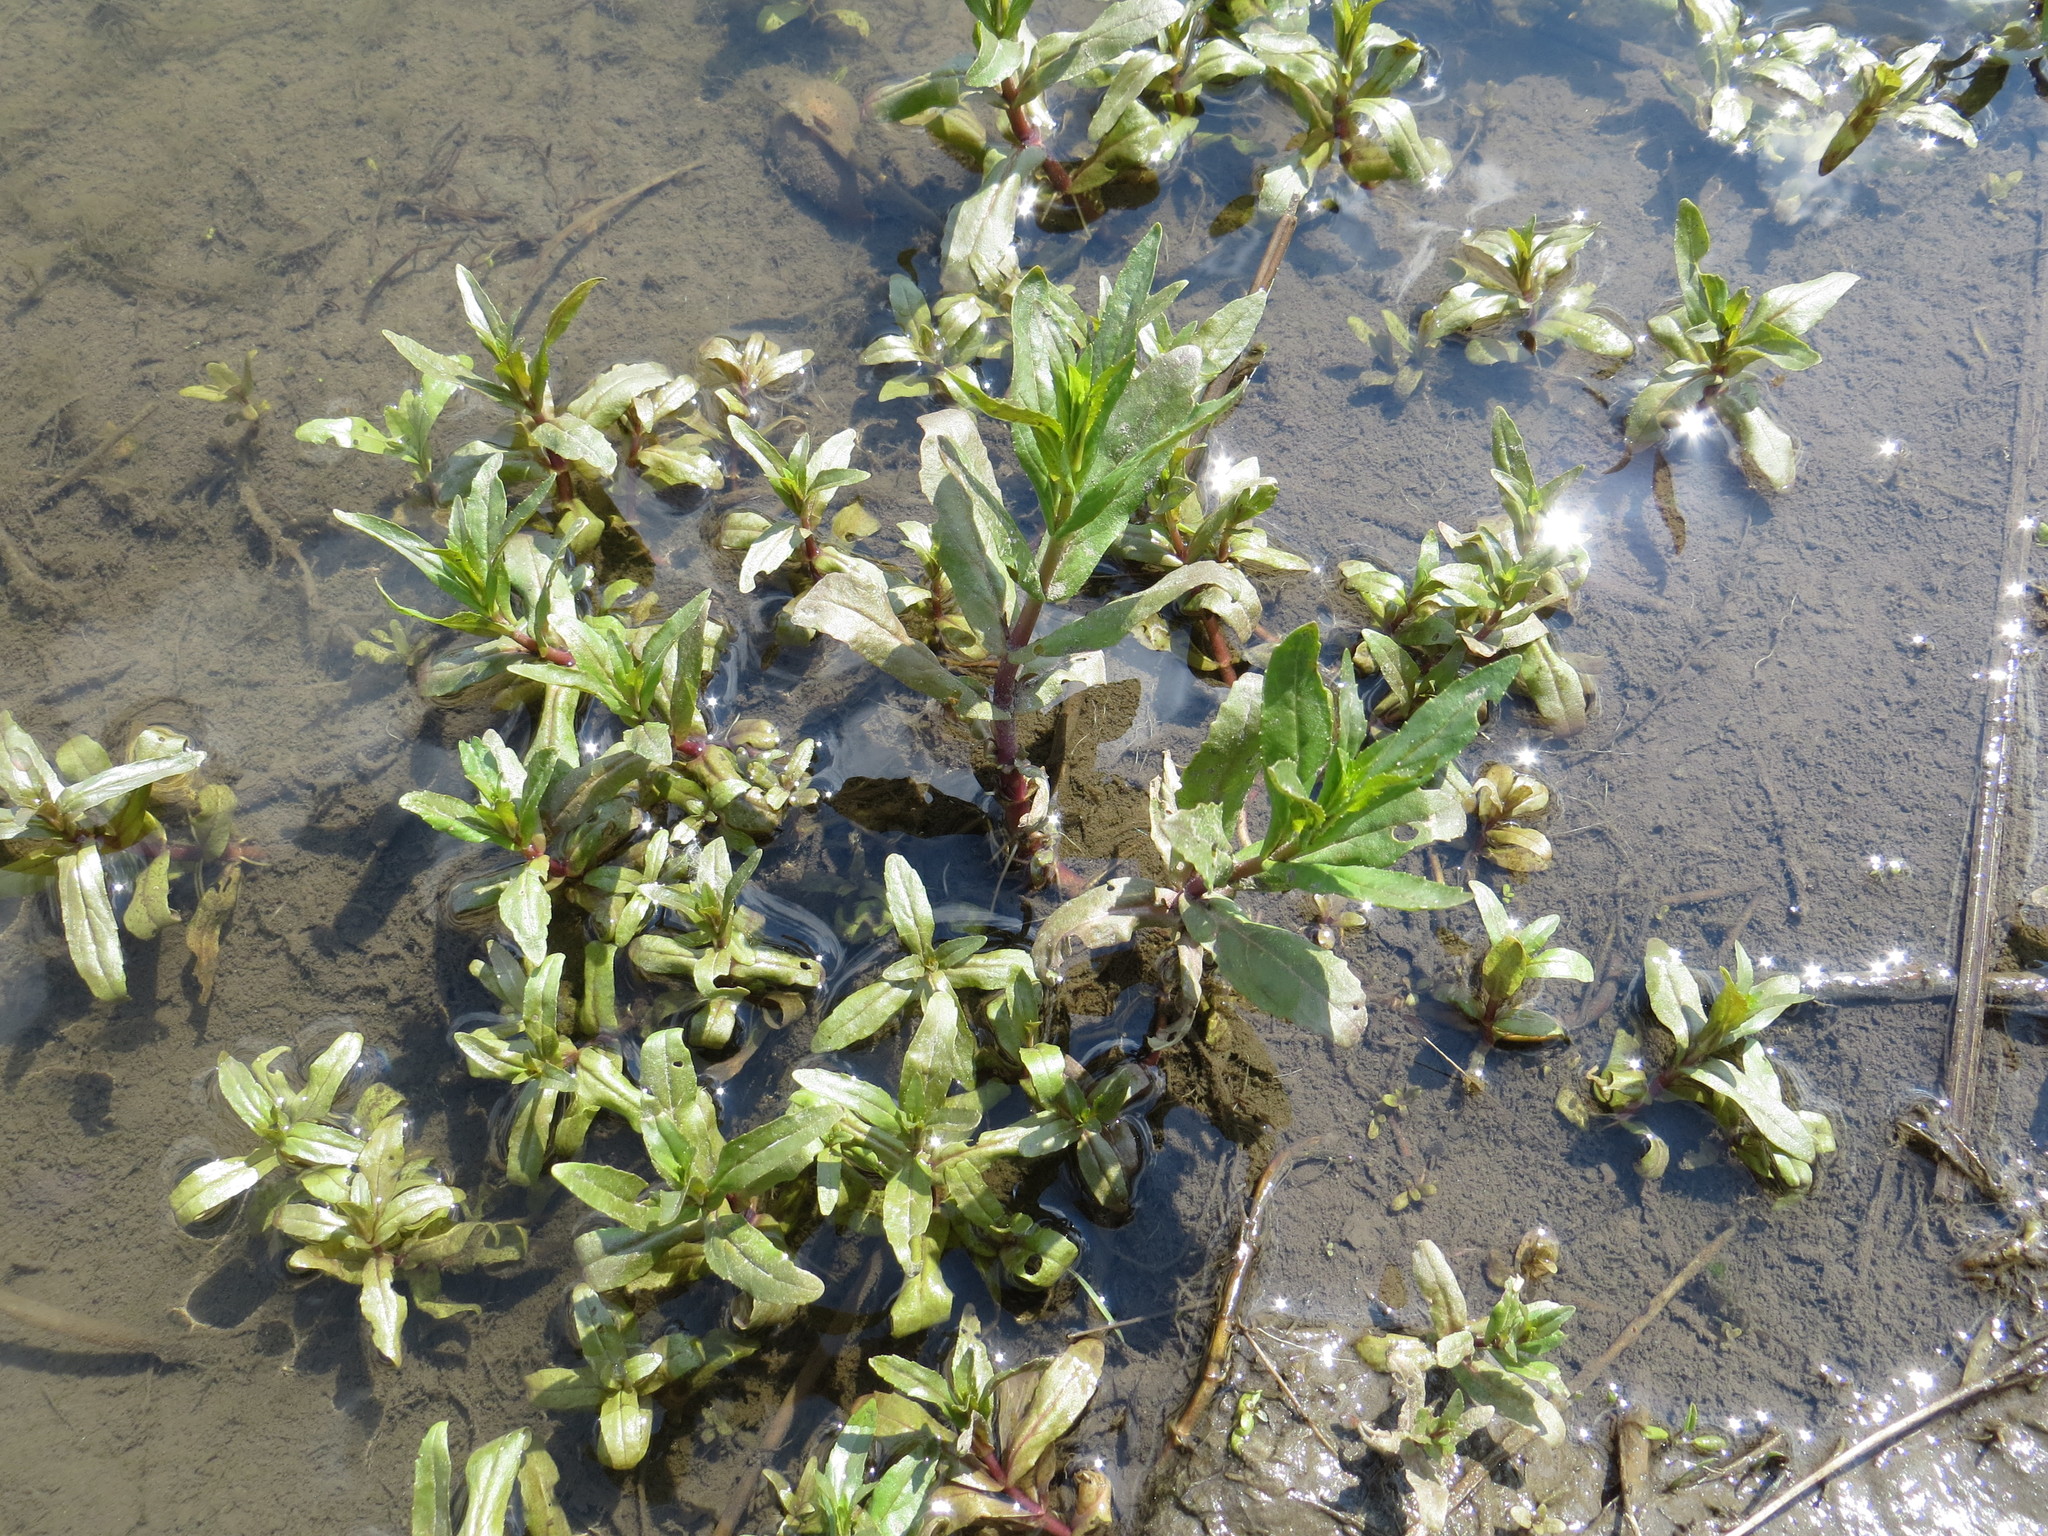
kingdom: Plantae
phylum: Tracheophyta
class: Magnoliopsida
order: Lamiales
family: Plantaginaceae
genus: Veronica
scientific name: Veronica anagallis-aquatica
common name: Water speedwell
